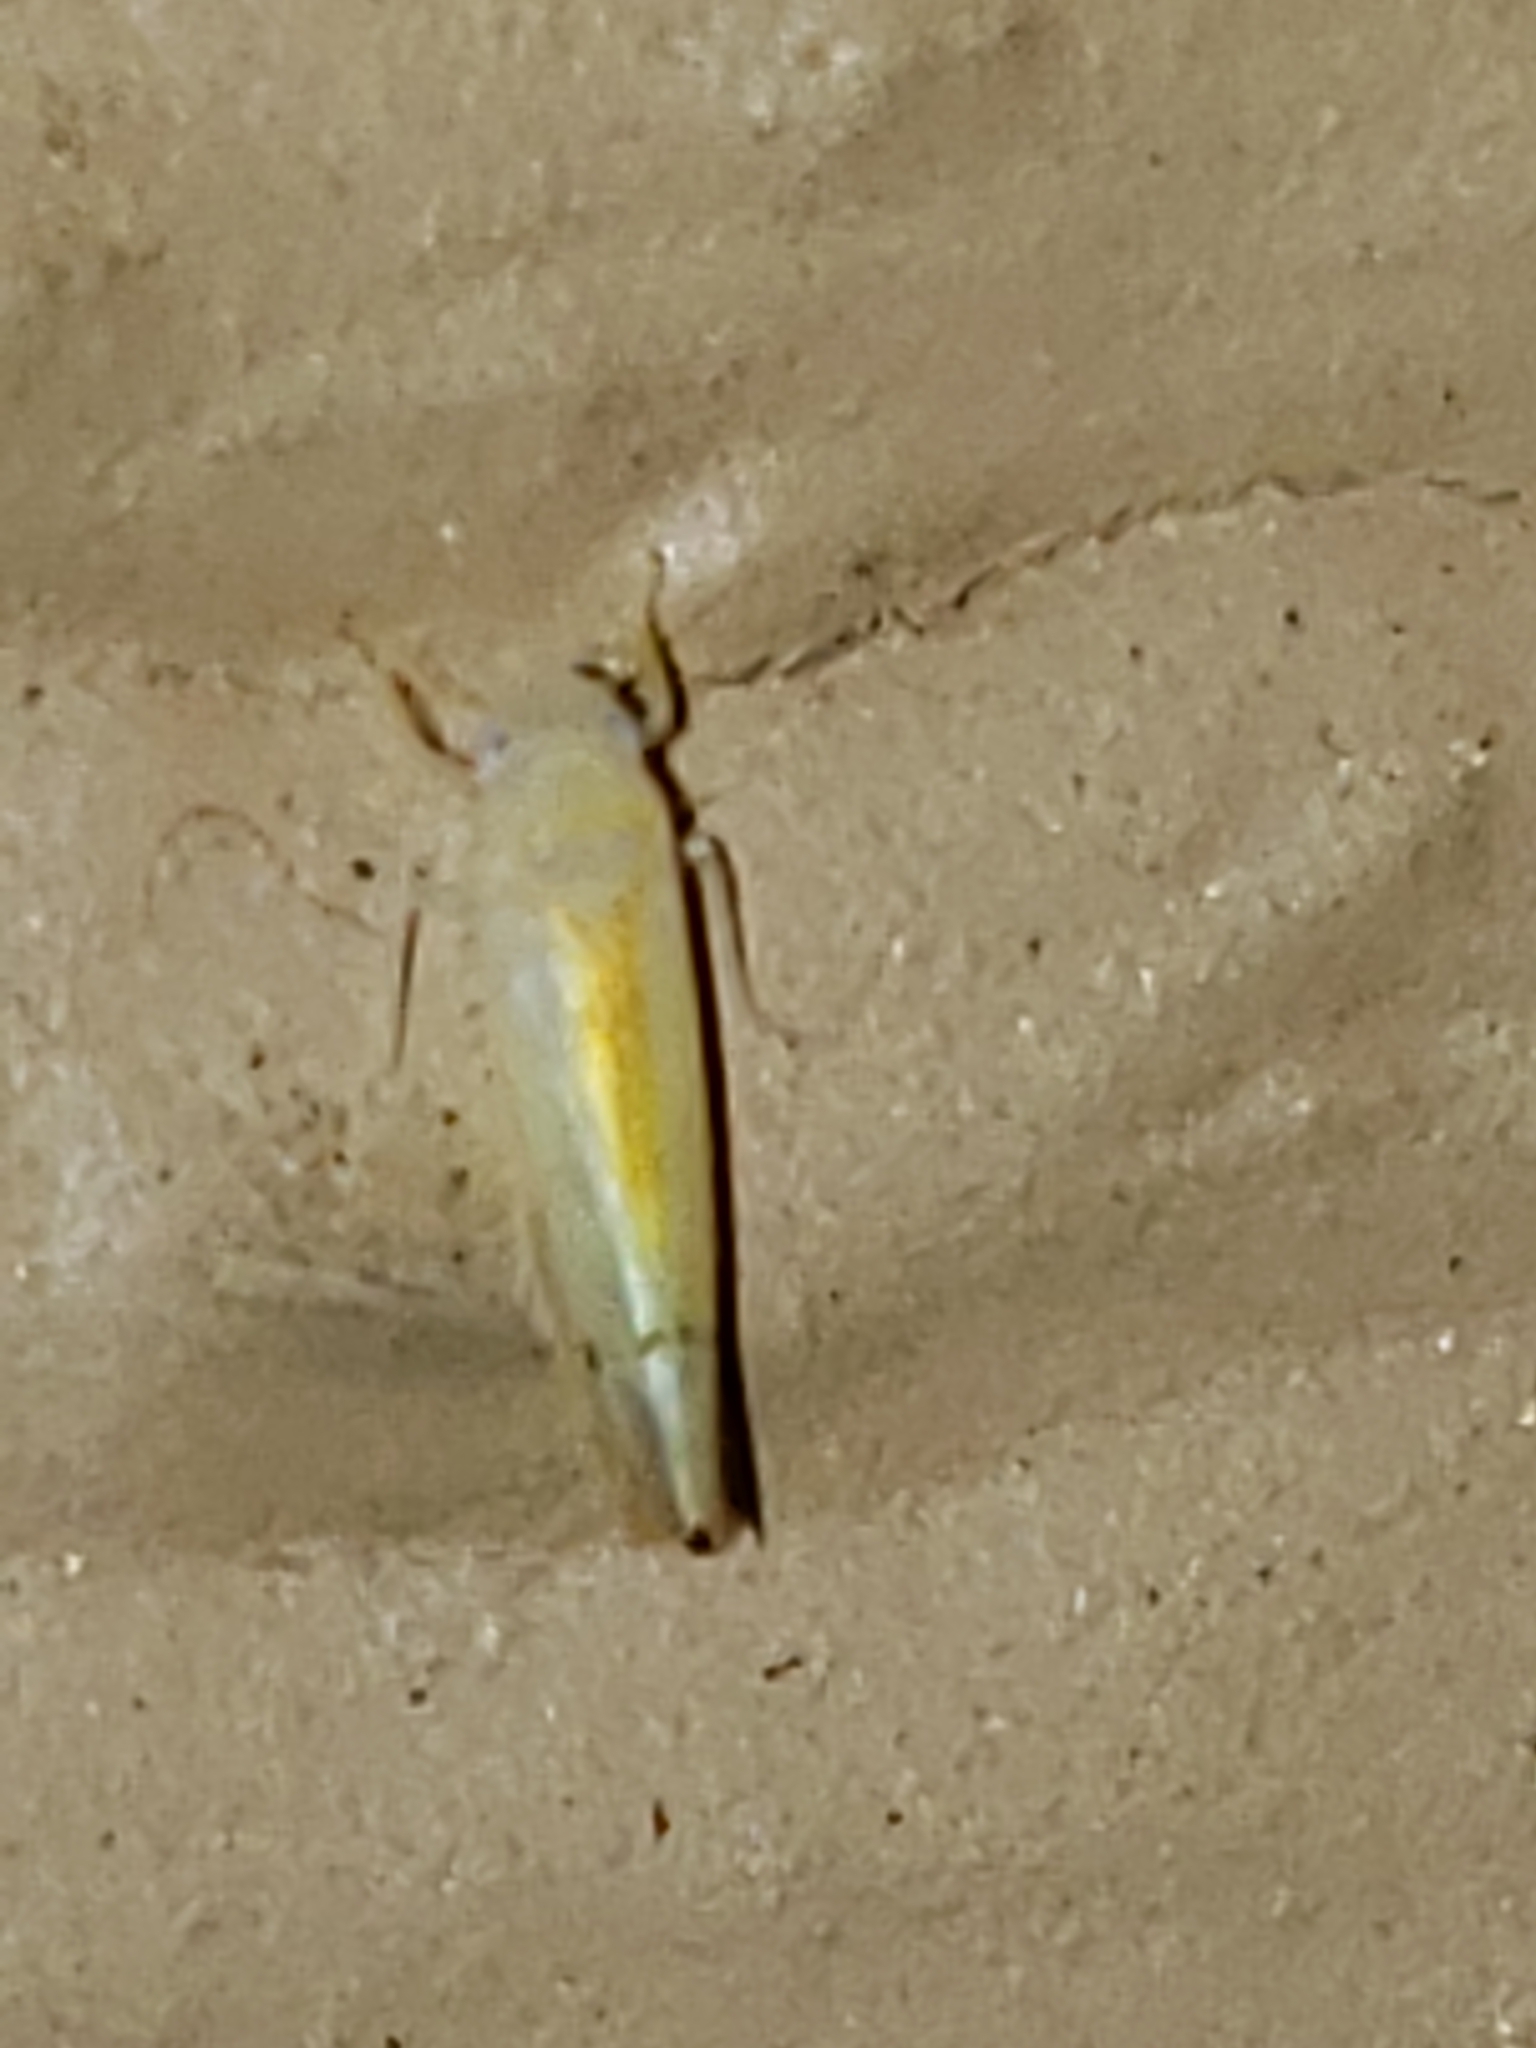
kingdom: Animalia
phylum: Arthropoda
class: Insecta
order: Hemiptera
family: Cicadellidae
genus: Ossiannilssonola
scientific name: Ossiannilssonola australis
